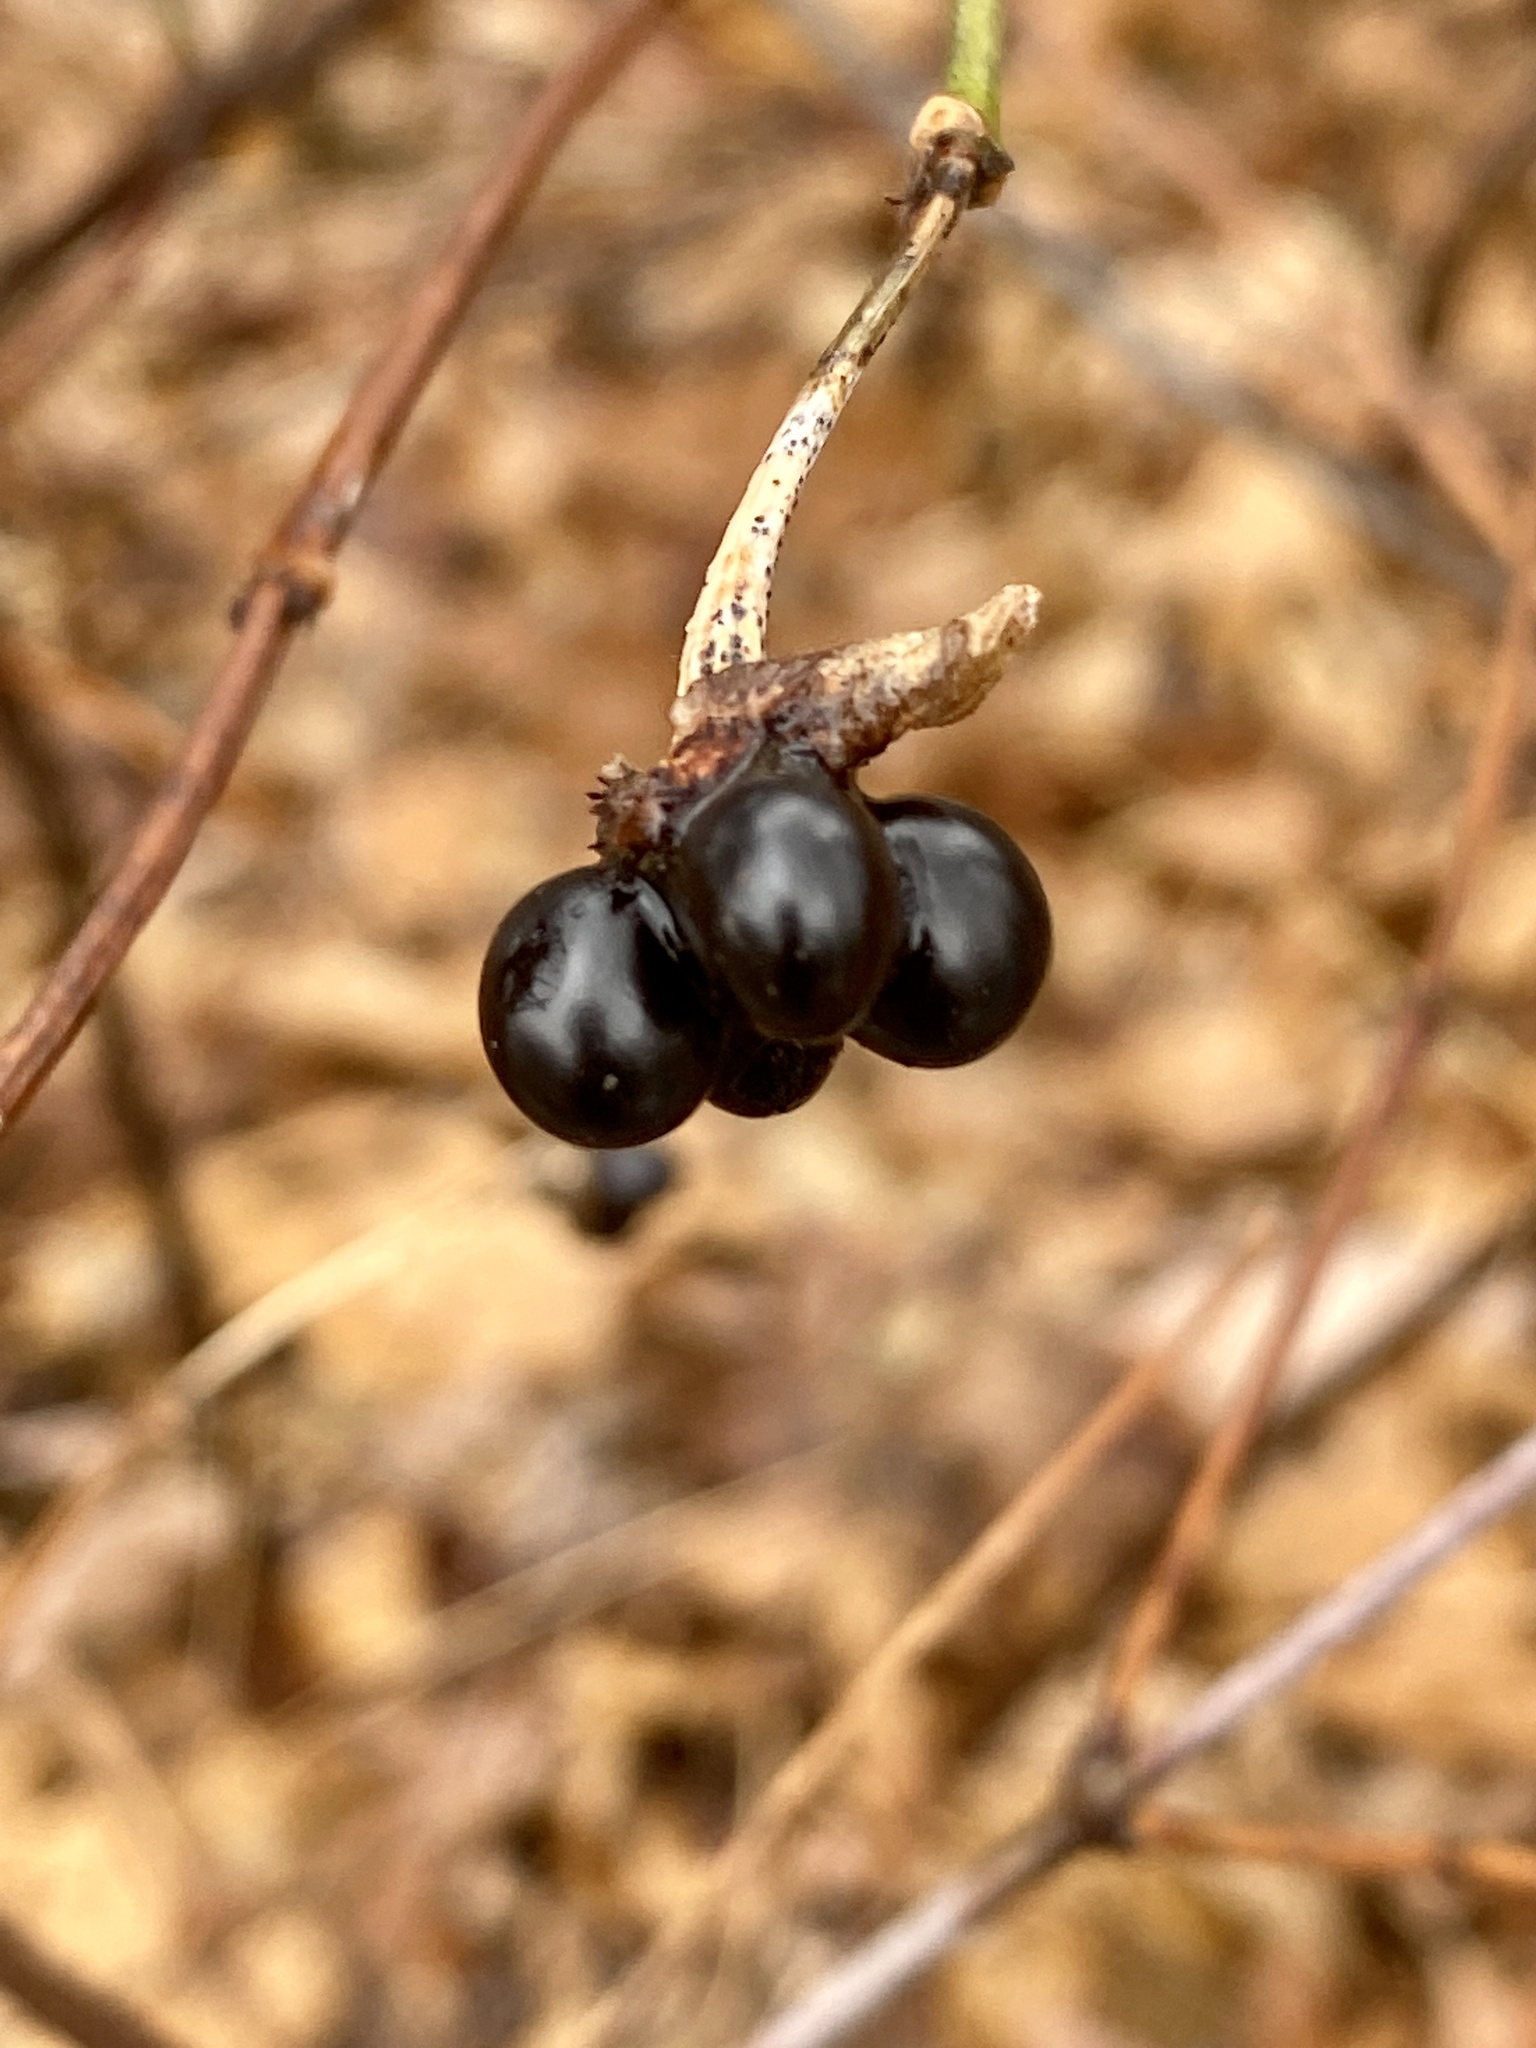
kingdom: Plantae
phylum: Tracheophyta
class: Magnoliopsida
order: Rosales
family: Rosaceae
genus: Rhodotypos
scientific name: Rhodotypos scandens
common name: Jetbead
